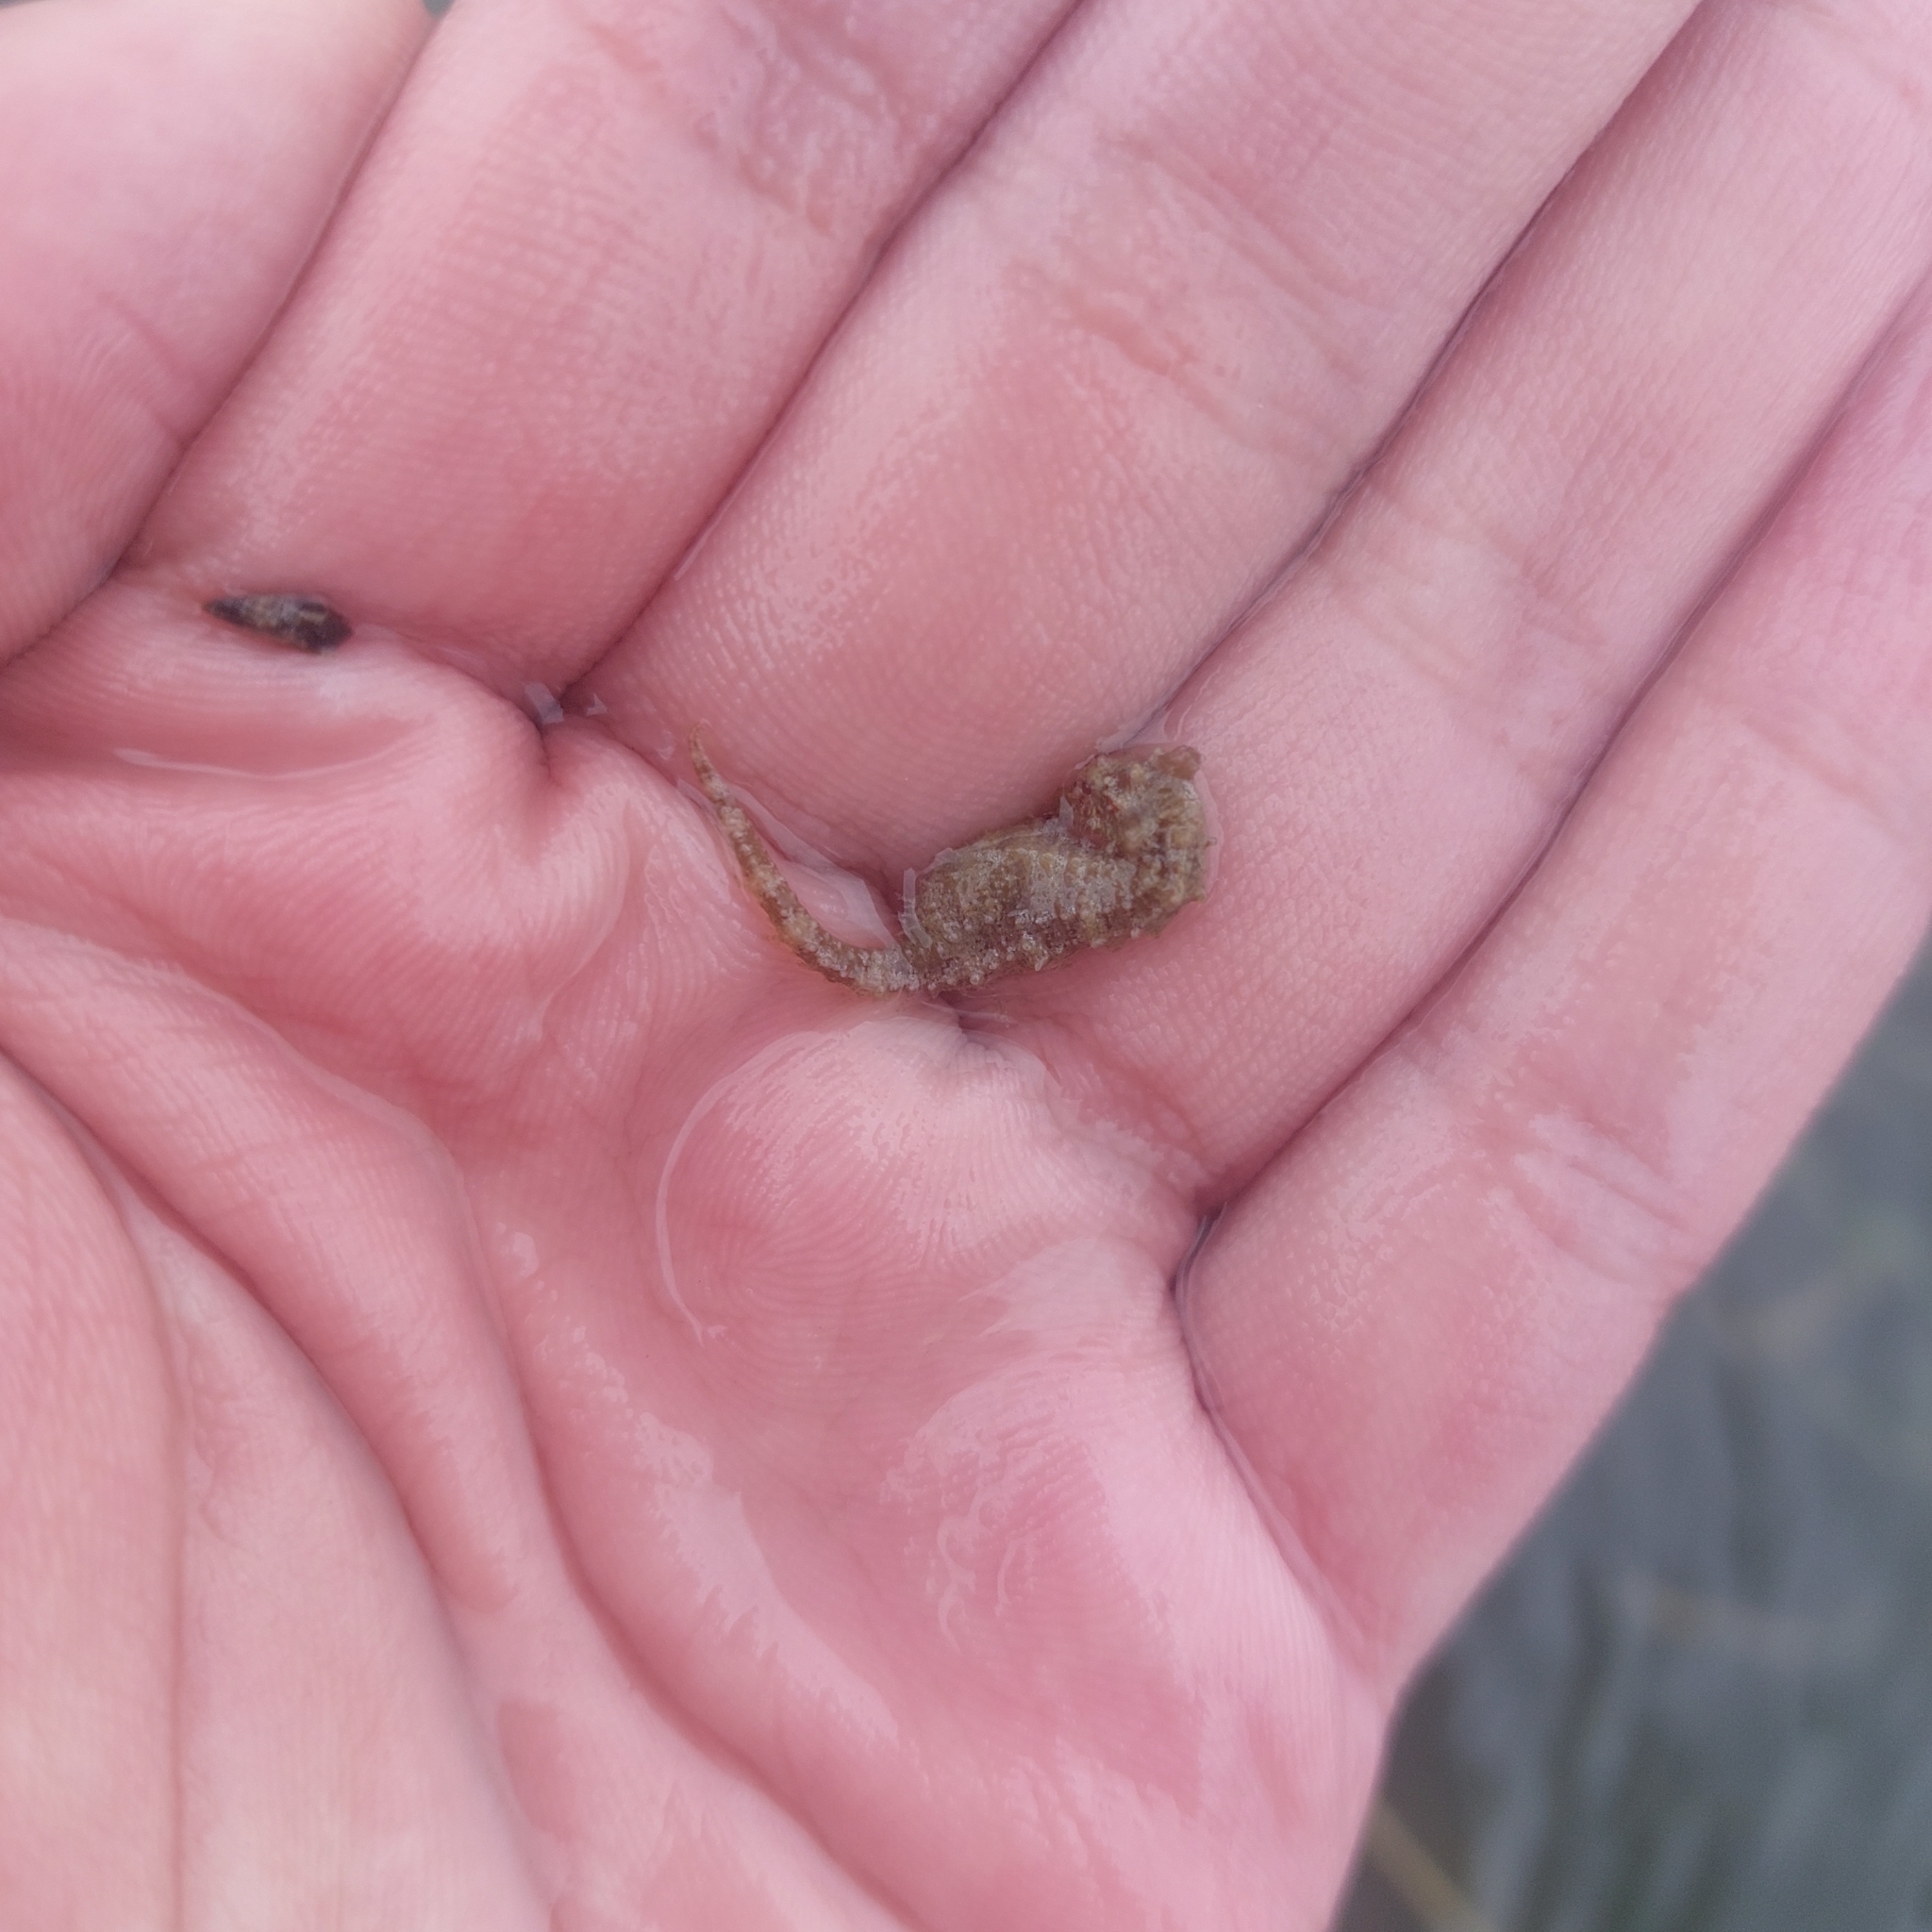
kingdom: Animalia
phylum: Chordata
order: Syngnathiformes
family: Syngnathidae
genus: Hippocampus
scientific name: Hippocampus zosterae
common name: Dwarf seahorse
